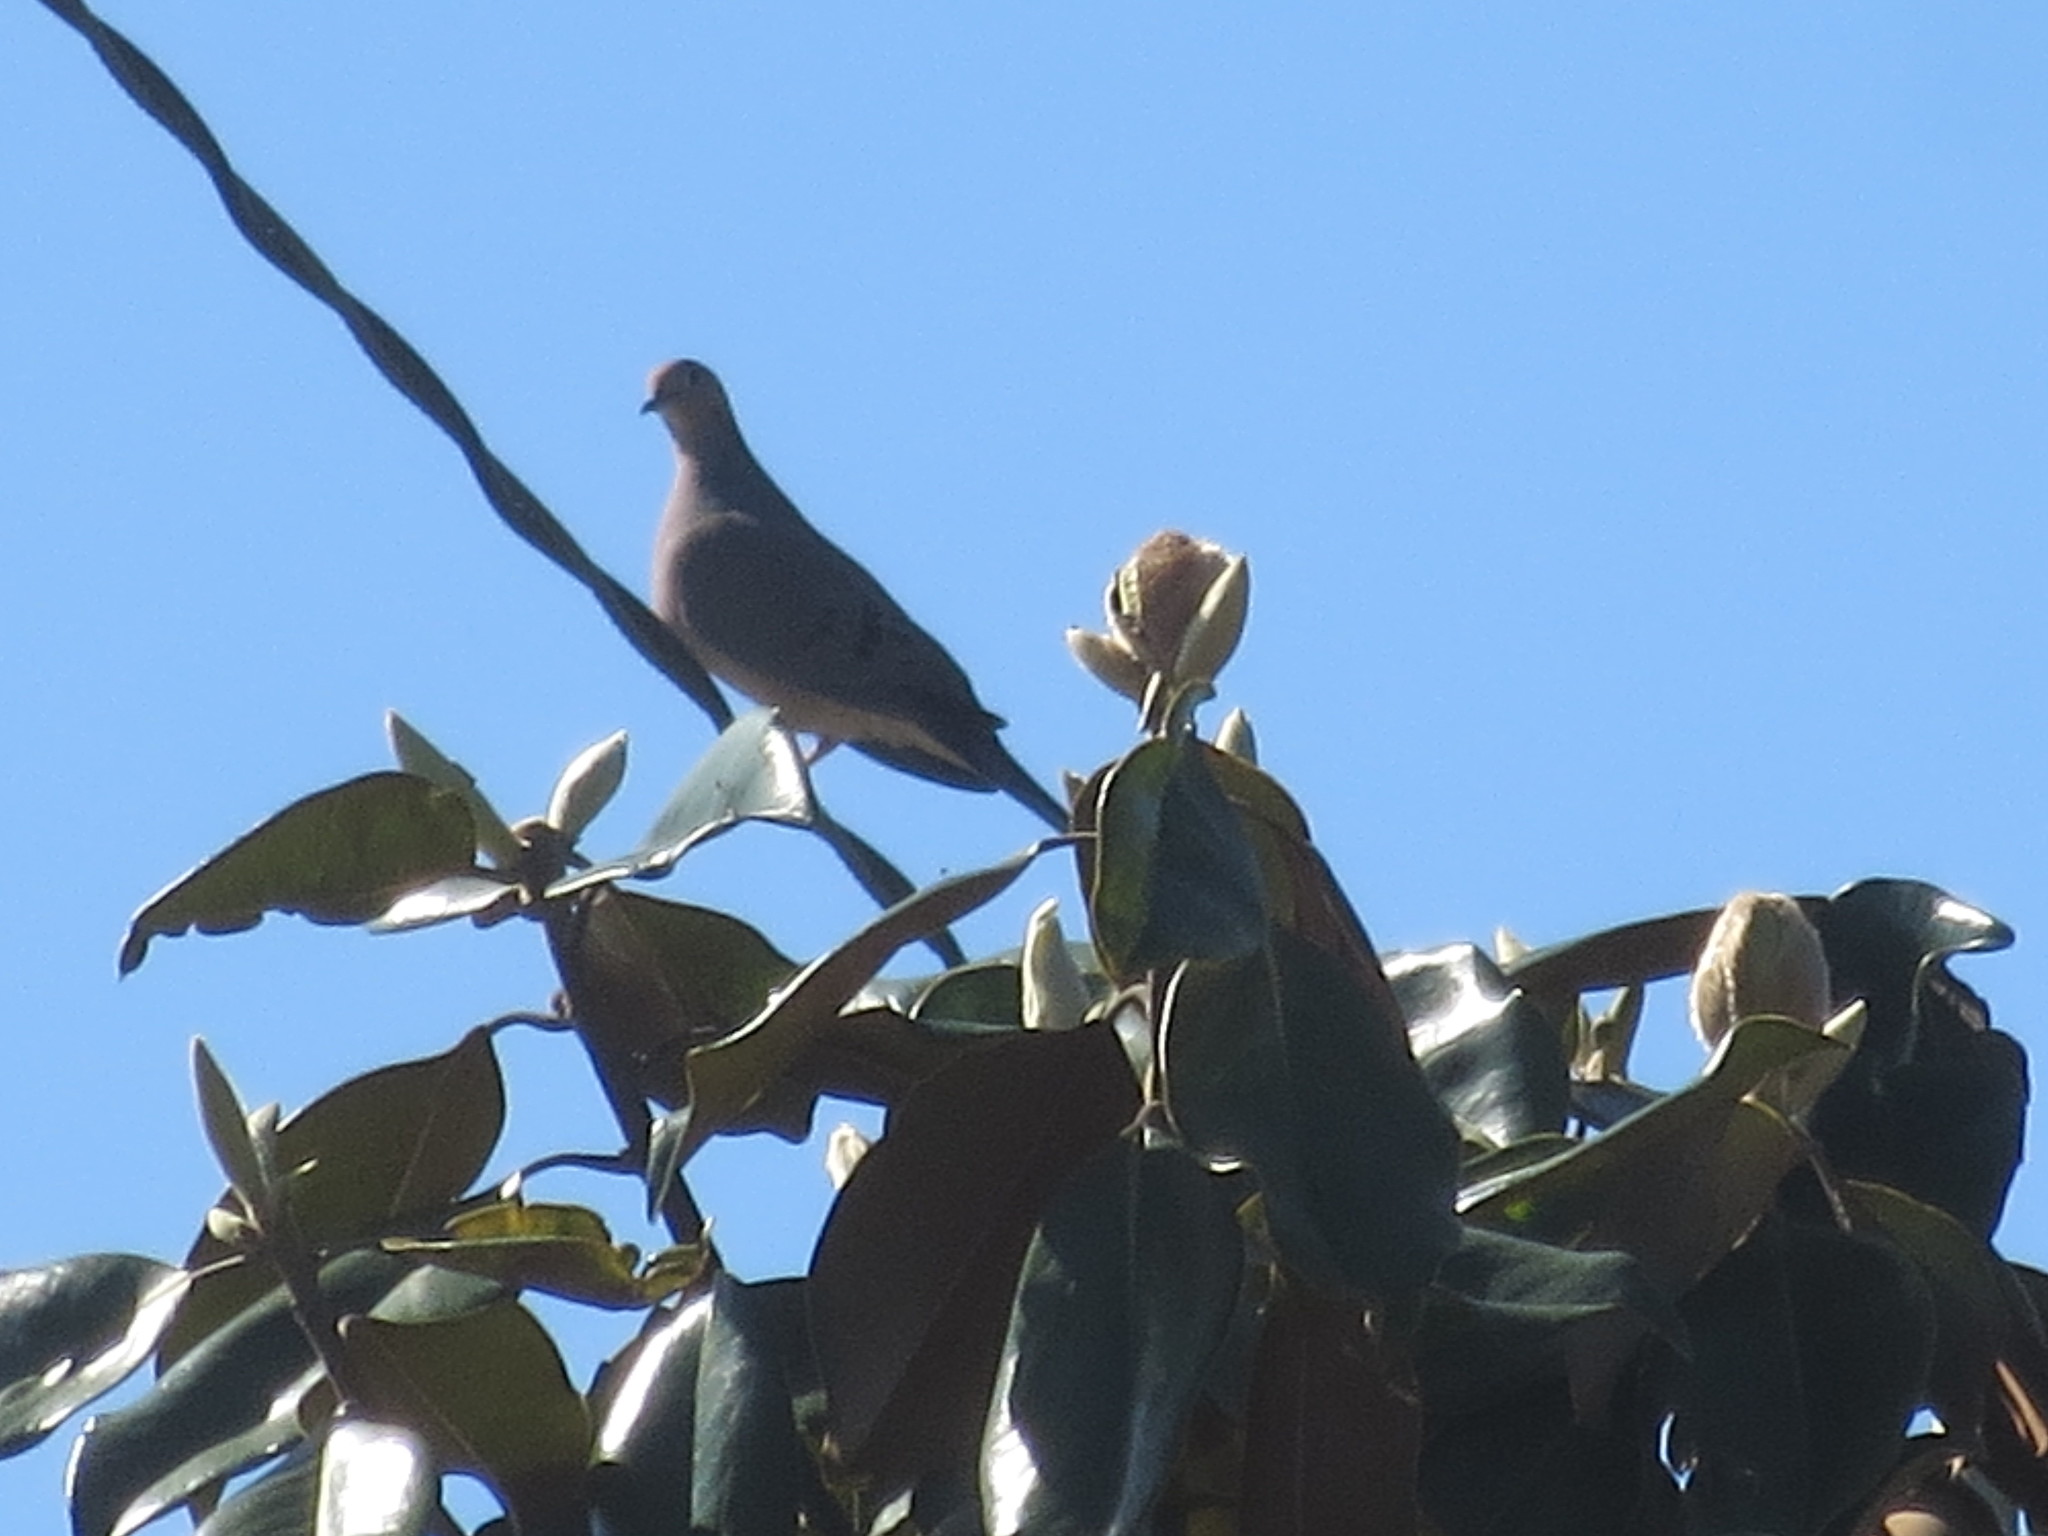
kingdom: Animalia
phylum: Chordata
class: Aves
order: Columbiformes
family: Columbidae
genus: Zenaida
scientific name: Zenaida macroura
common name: Mourning dove
